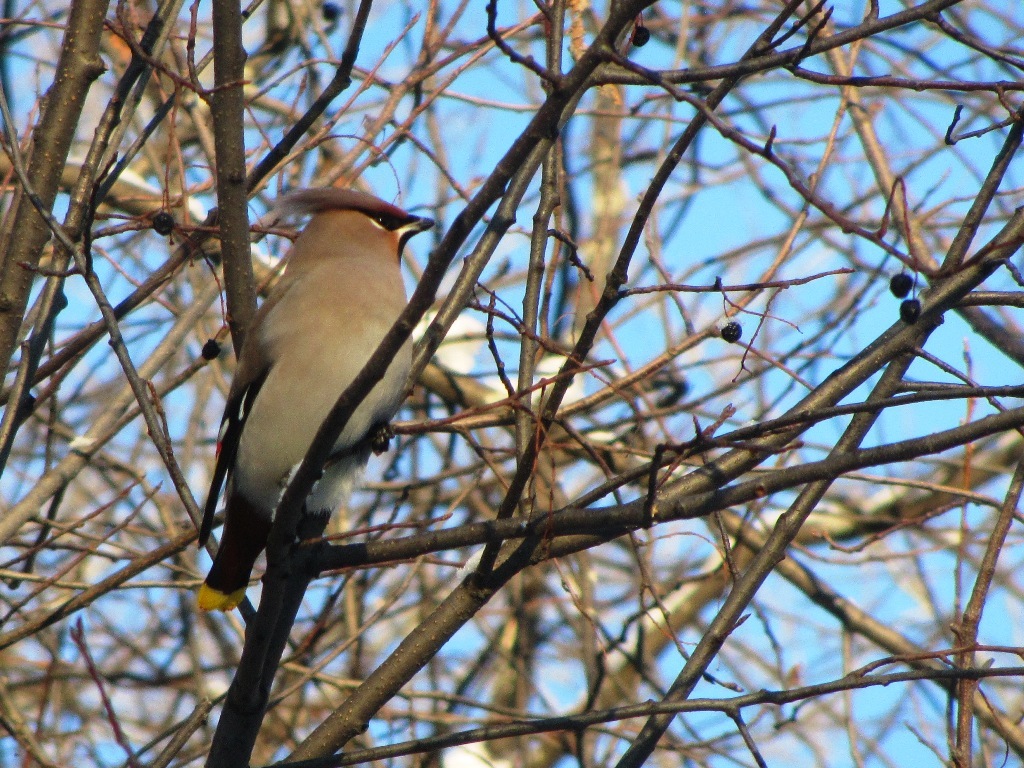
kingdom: Animalia
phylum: Chordata
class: Aves
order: Passeriformes
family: Bombycillidae
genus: Bombycilla
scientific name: Bombycilla garrulus
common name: Bohemian waxwing
